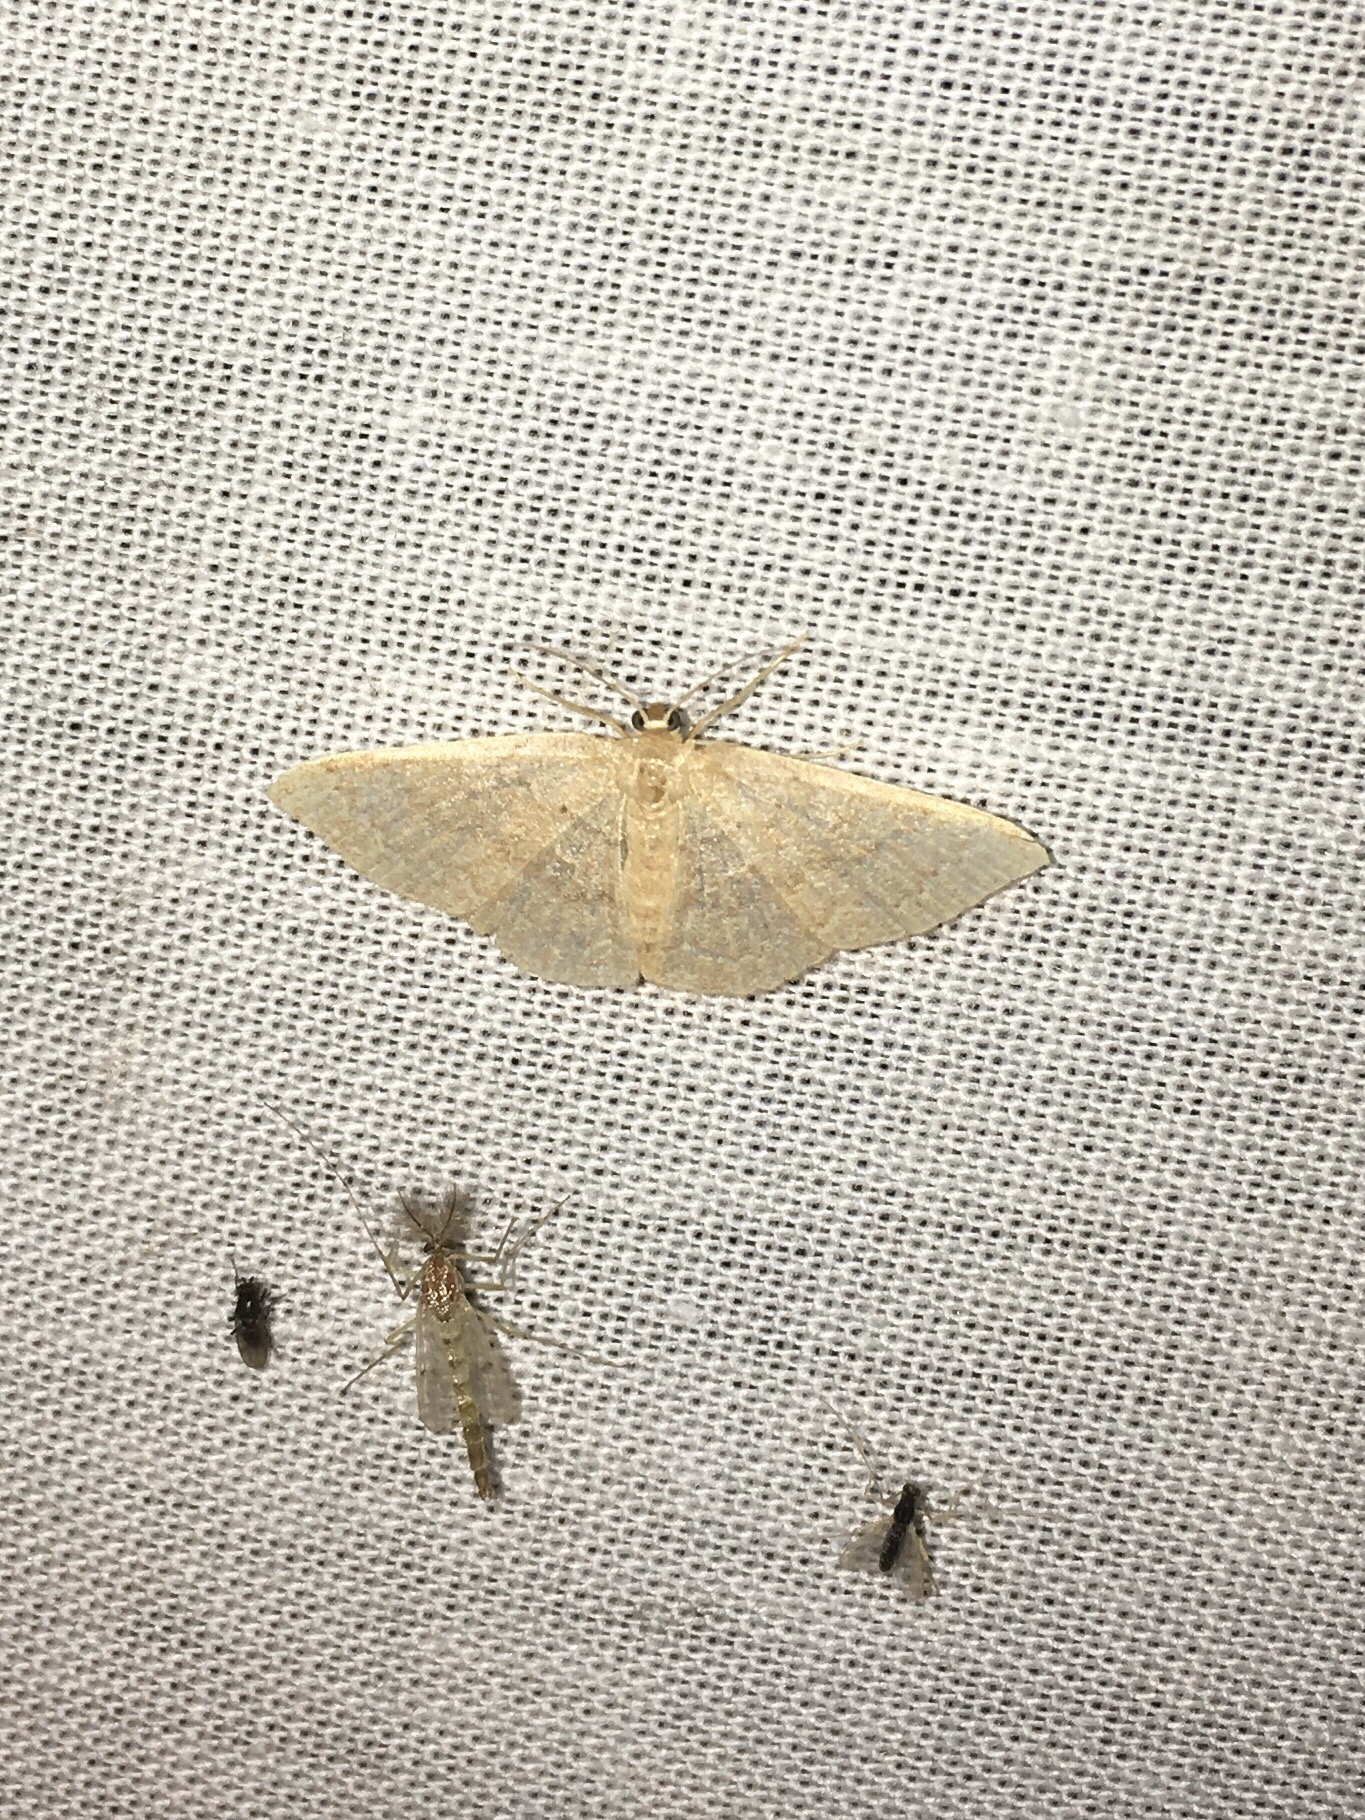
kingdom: Animalia
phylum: Arthropoda
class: Insecta
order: Lepidoptera
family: Geometridae
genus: Pleuroprucha
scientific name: Pleuroprucha insulsaria
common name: Common tan wave
